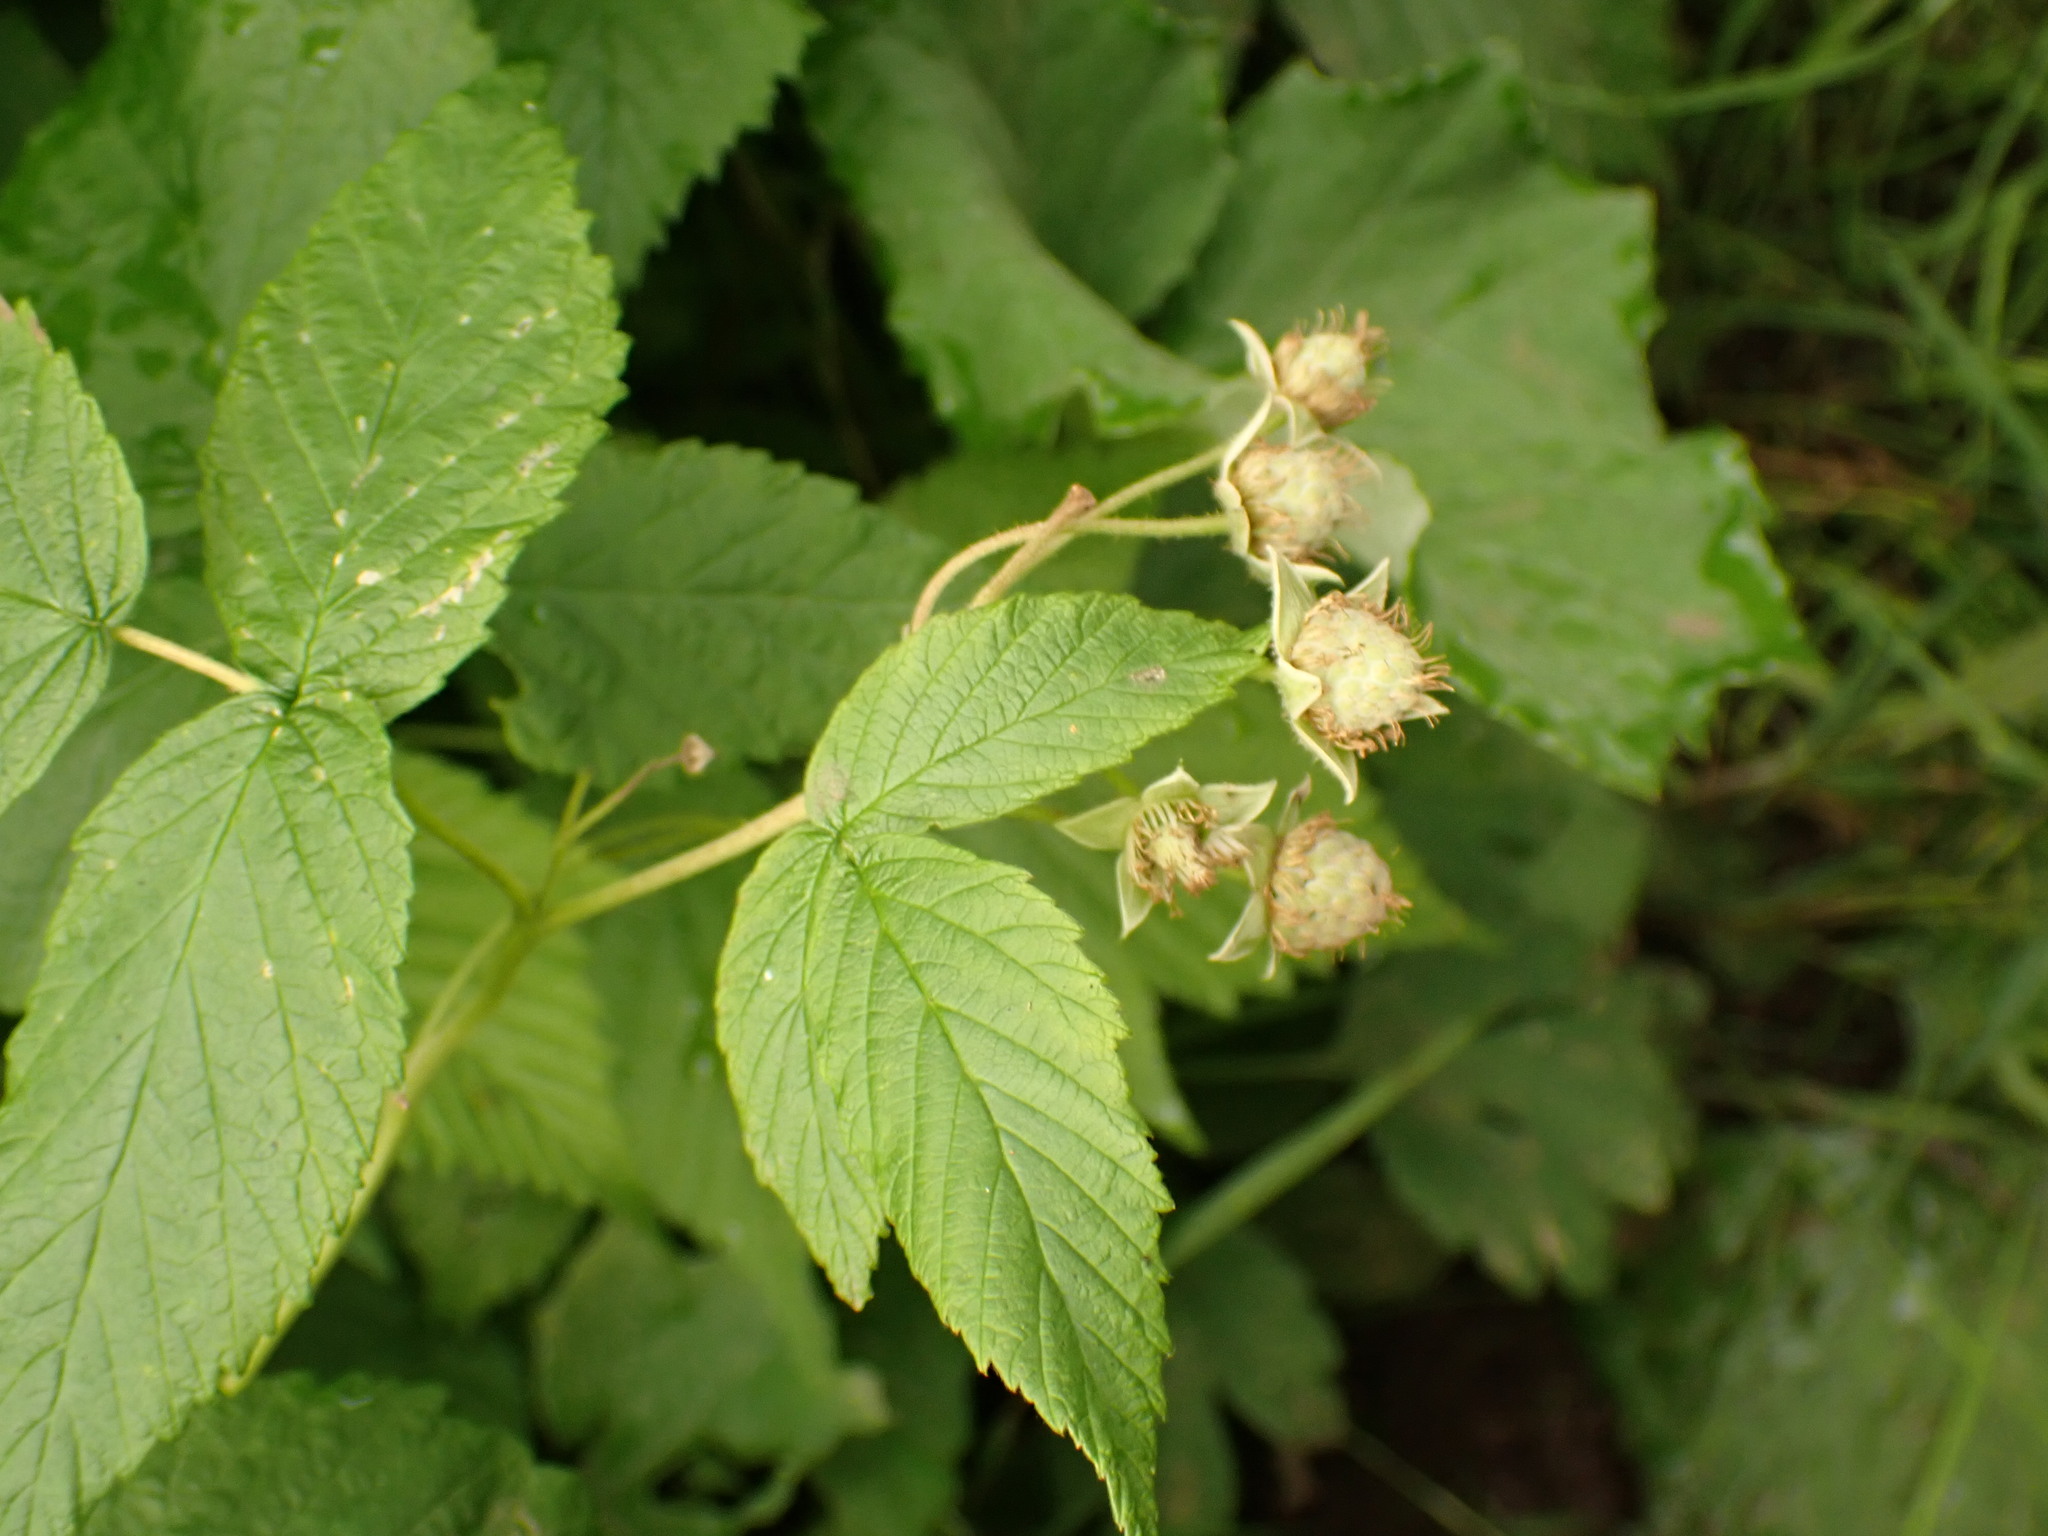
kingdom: Plantae
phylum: Tracheophyta
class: Magnoliopsida
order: Rosales
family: Rosaceae
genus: Rubus
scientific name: Rubus idaeus
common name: Raspberry
